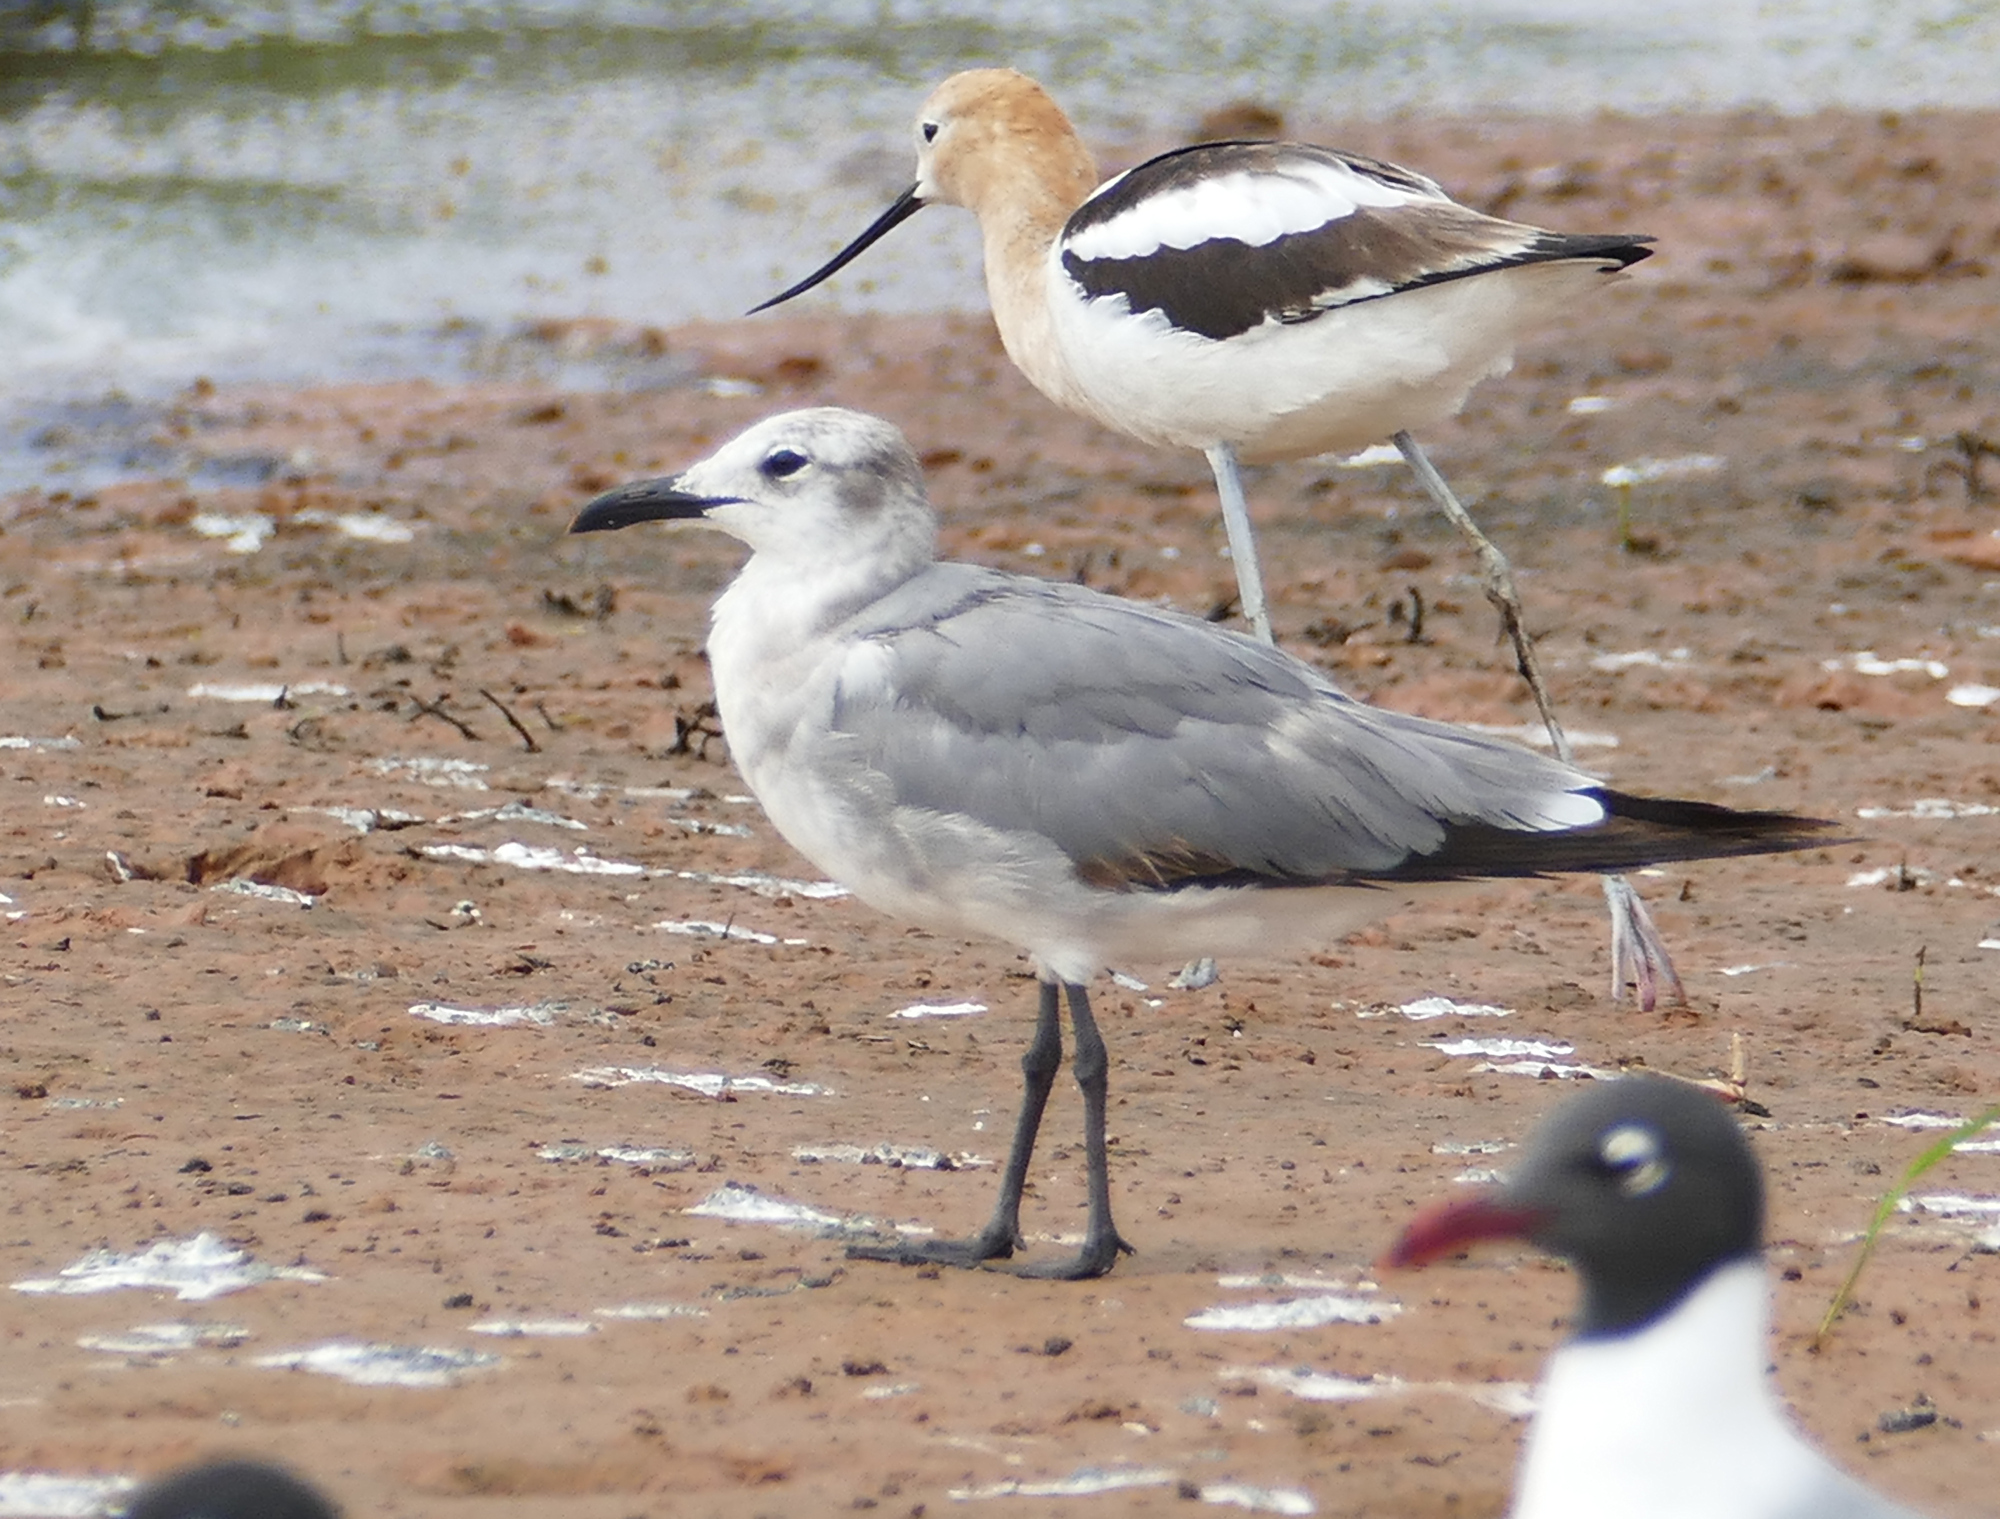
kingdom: Animalia
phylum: Chordata
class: Aves
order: Charadriiformes
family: Laridae
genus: Leucophaeus
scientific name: Leucophaeus atricilla
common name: Laughing gull
